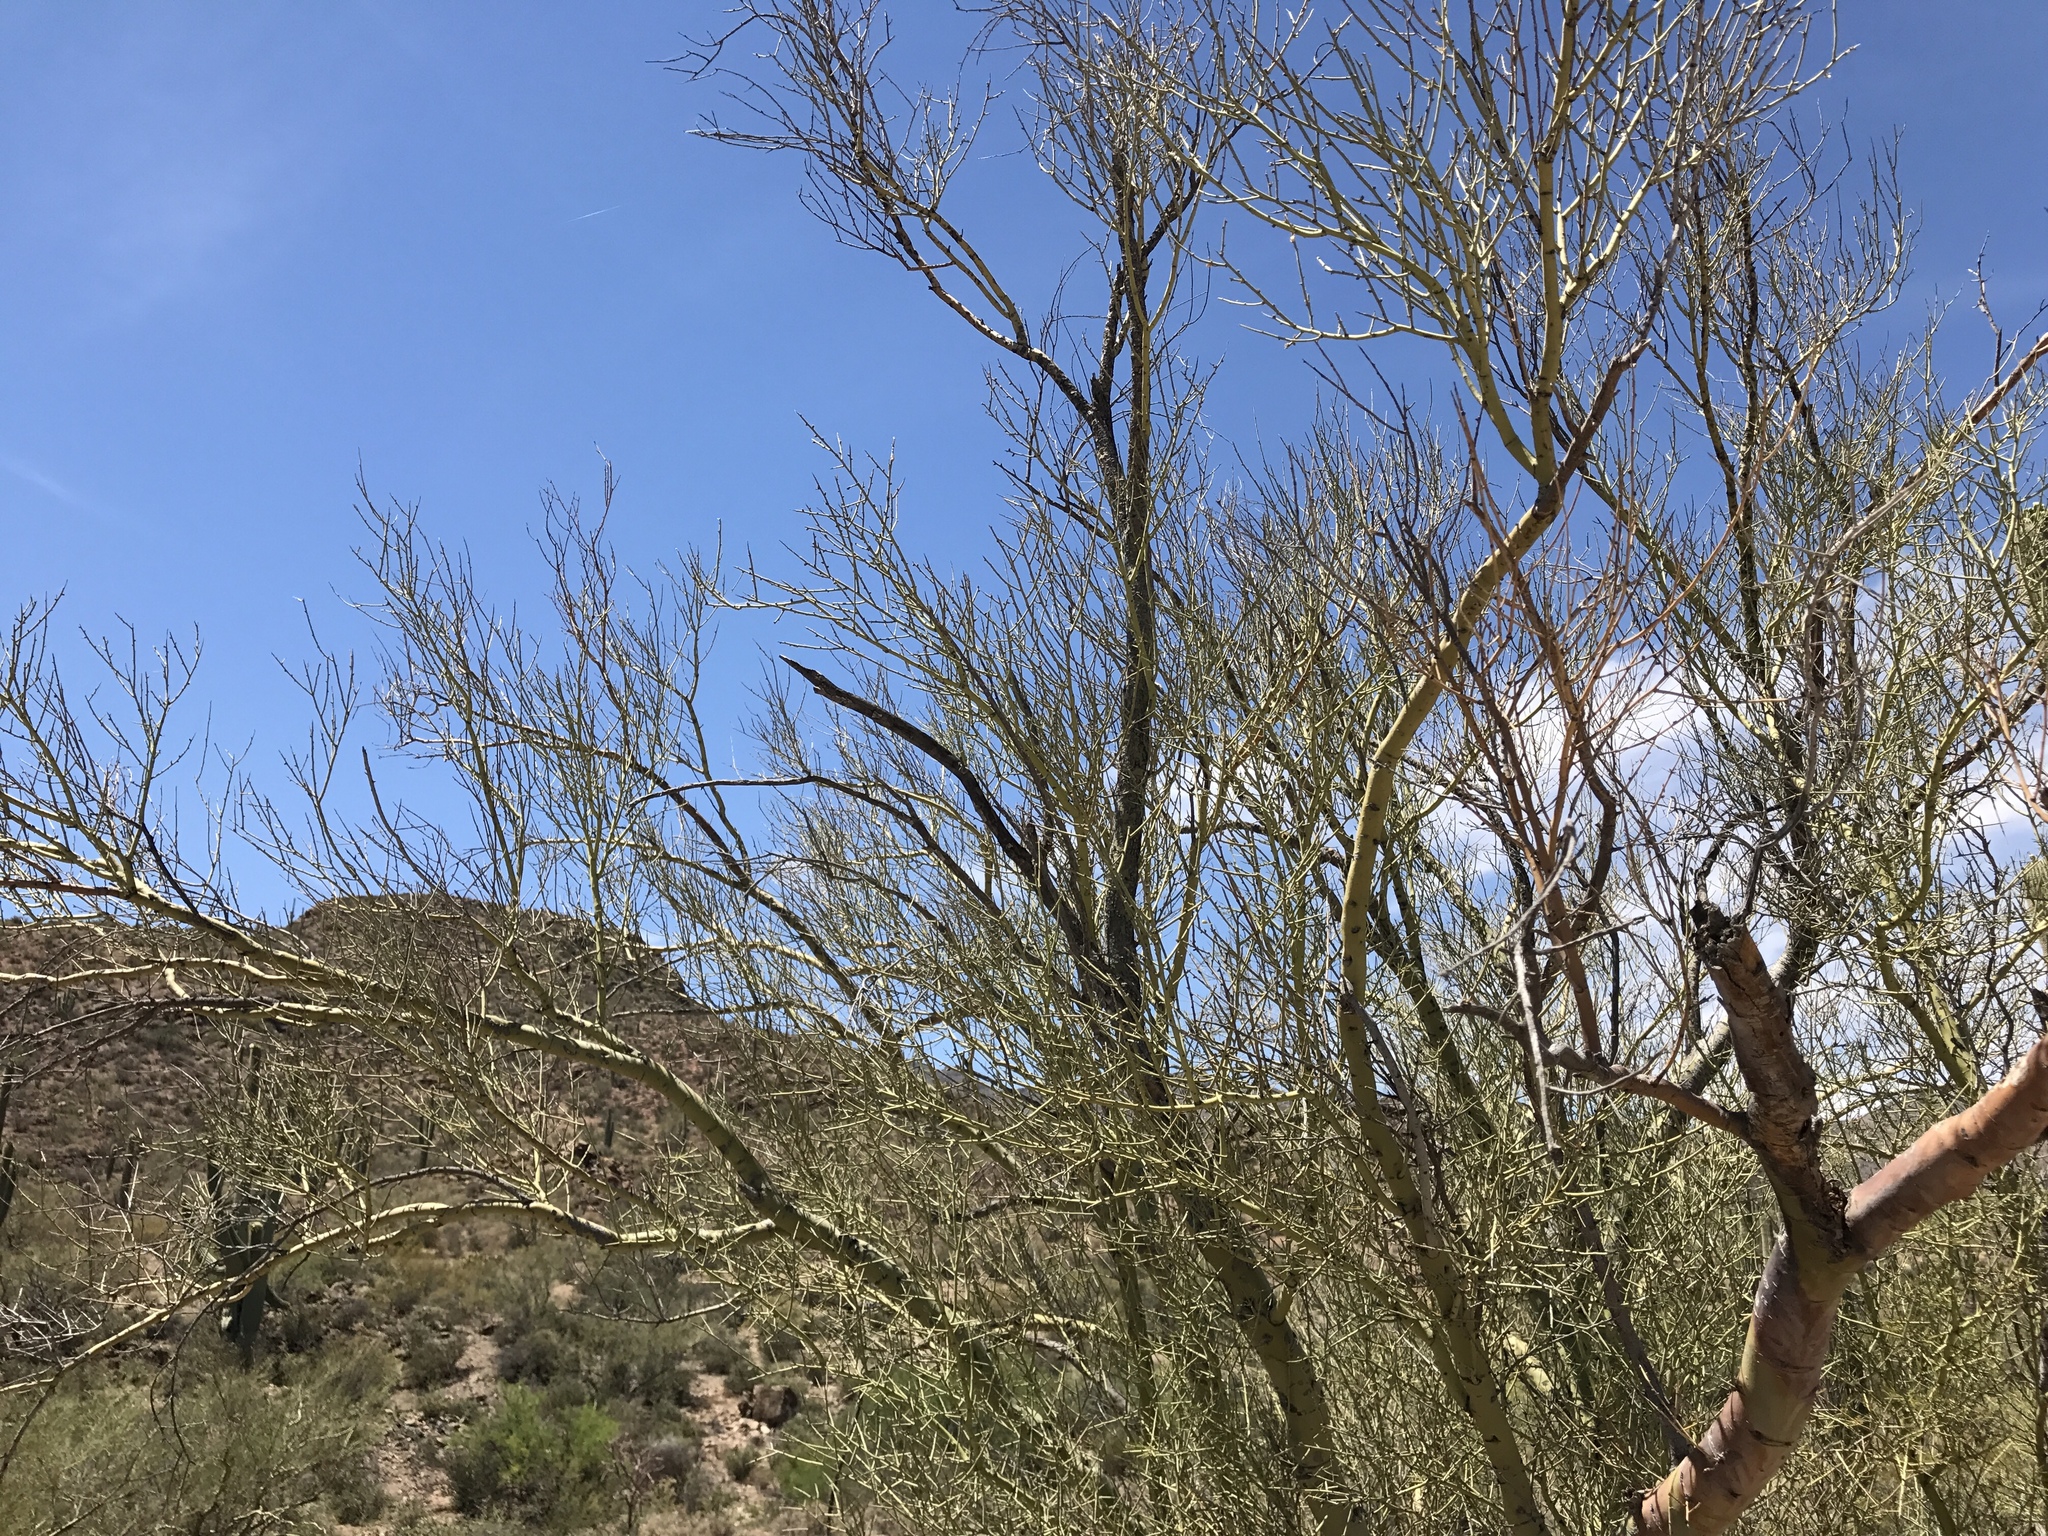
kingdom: Plantae
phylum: Tracheophyta
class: Magnoliopsida
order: Fabales
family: Fabaceae
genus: Parkinsonia
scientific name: Parkinsonia microphylla
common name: Yellow paloverde
